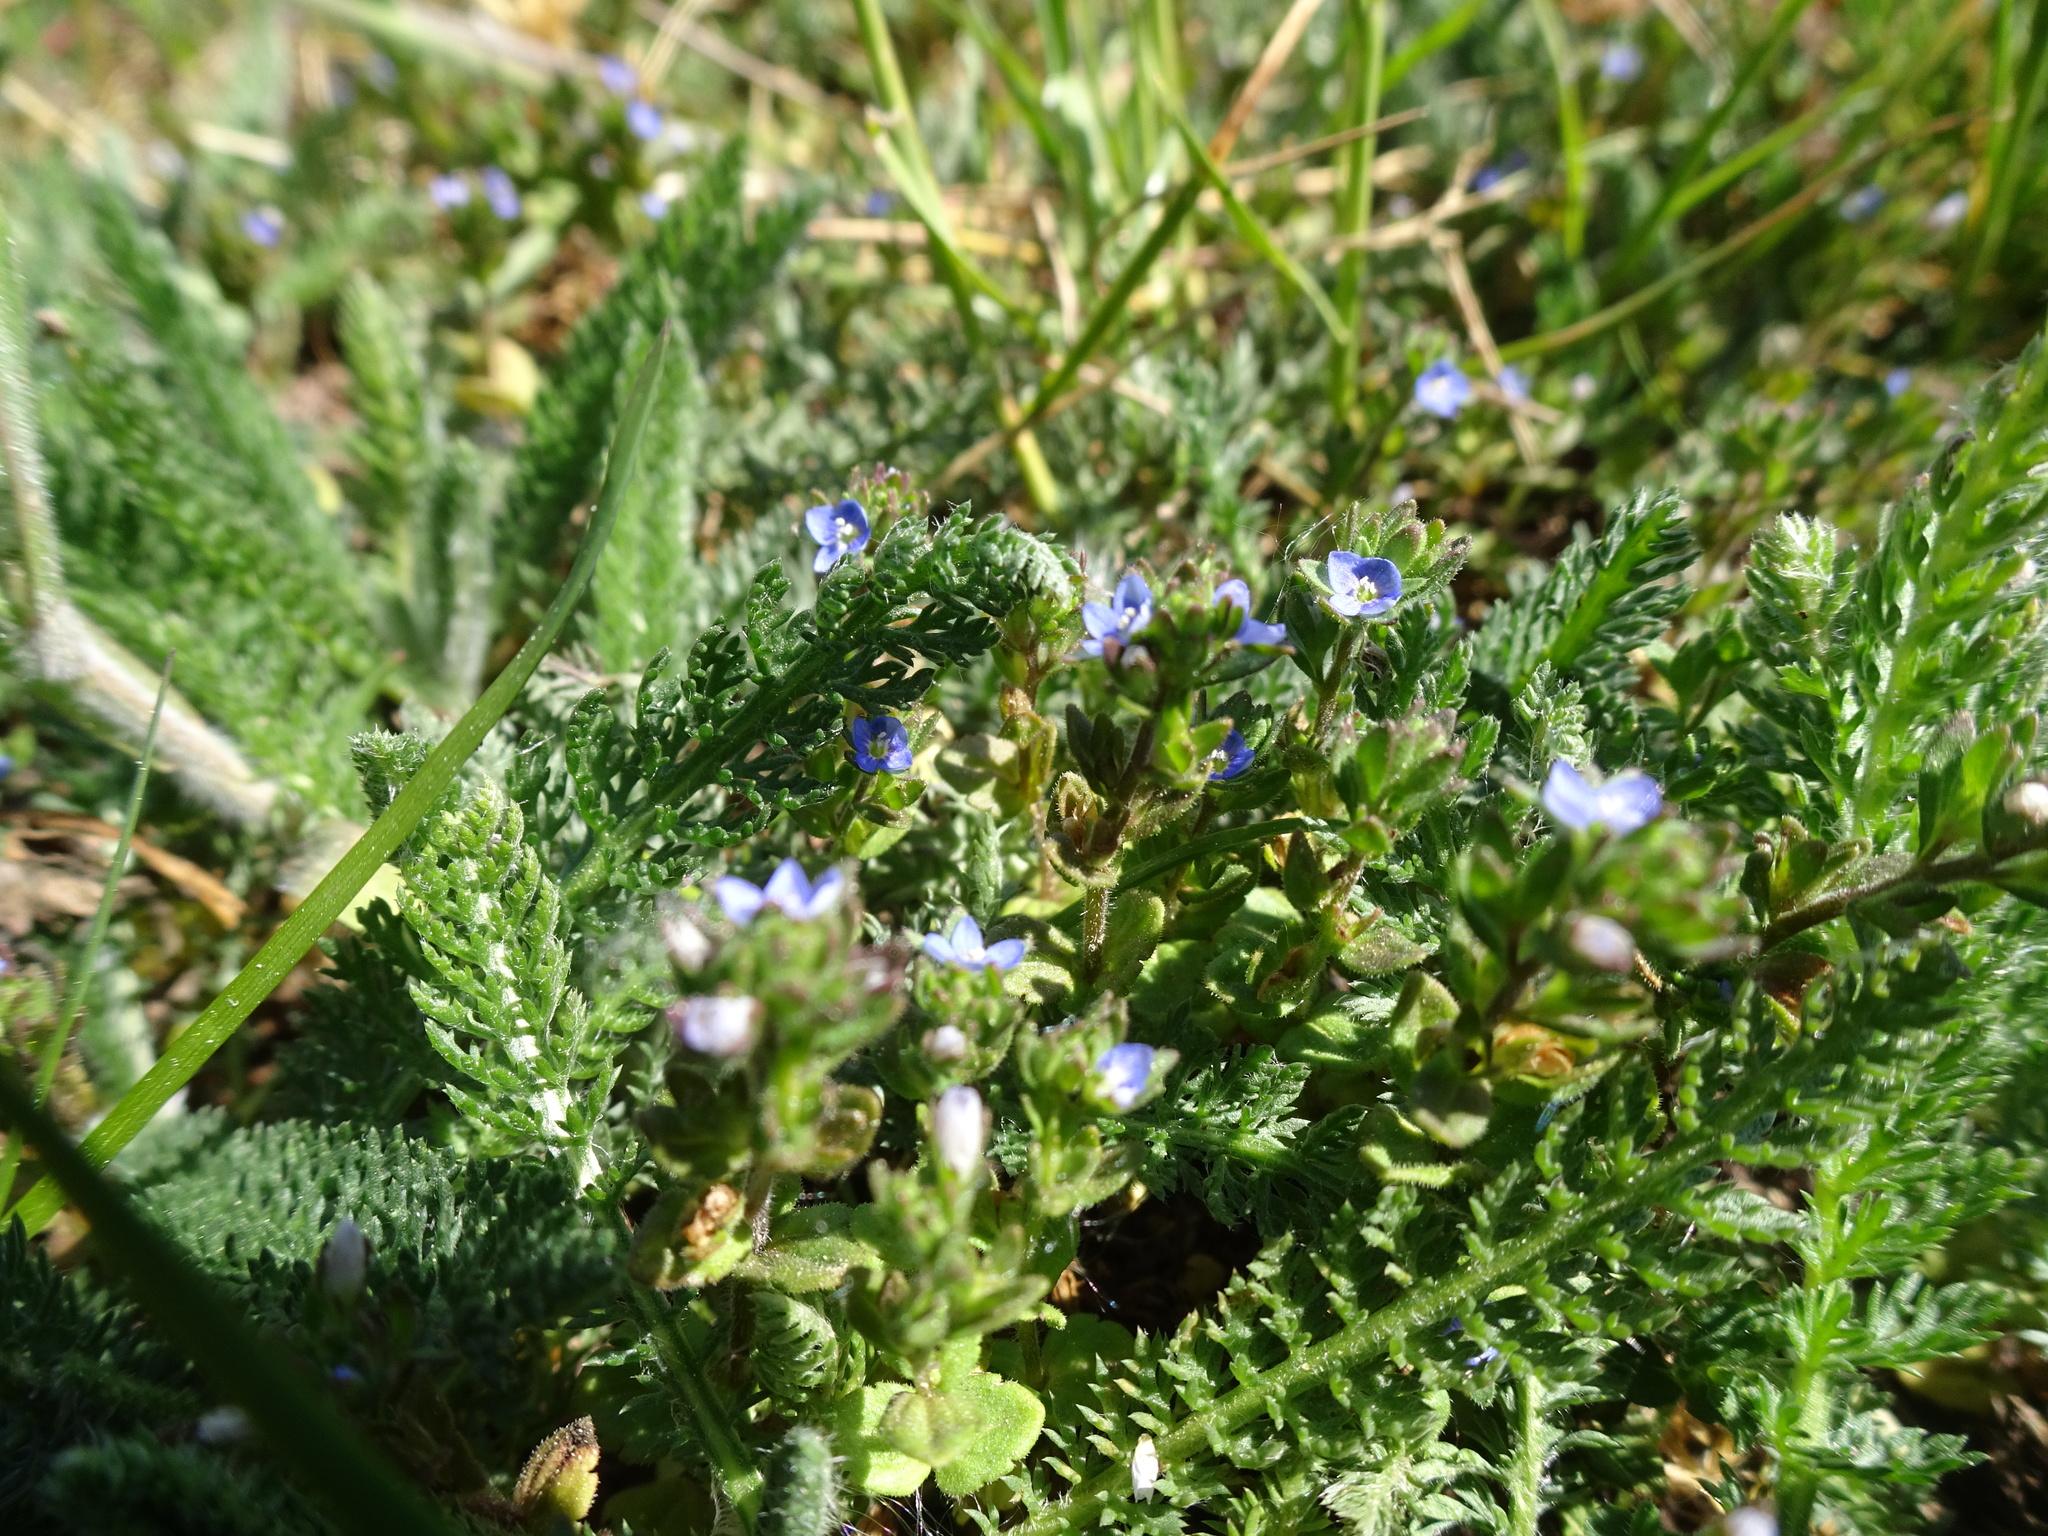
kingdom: Plantae
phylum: Tracheophyta
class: Magnoliopsida
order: Lamiales
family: Plantaginaceae
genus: Veronica
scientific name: Veronica arvensis
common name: Corn speedwell
